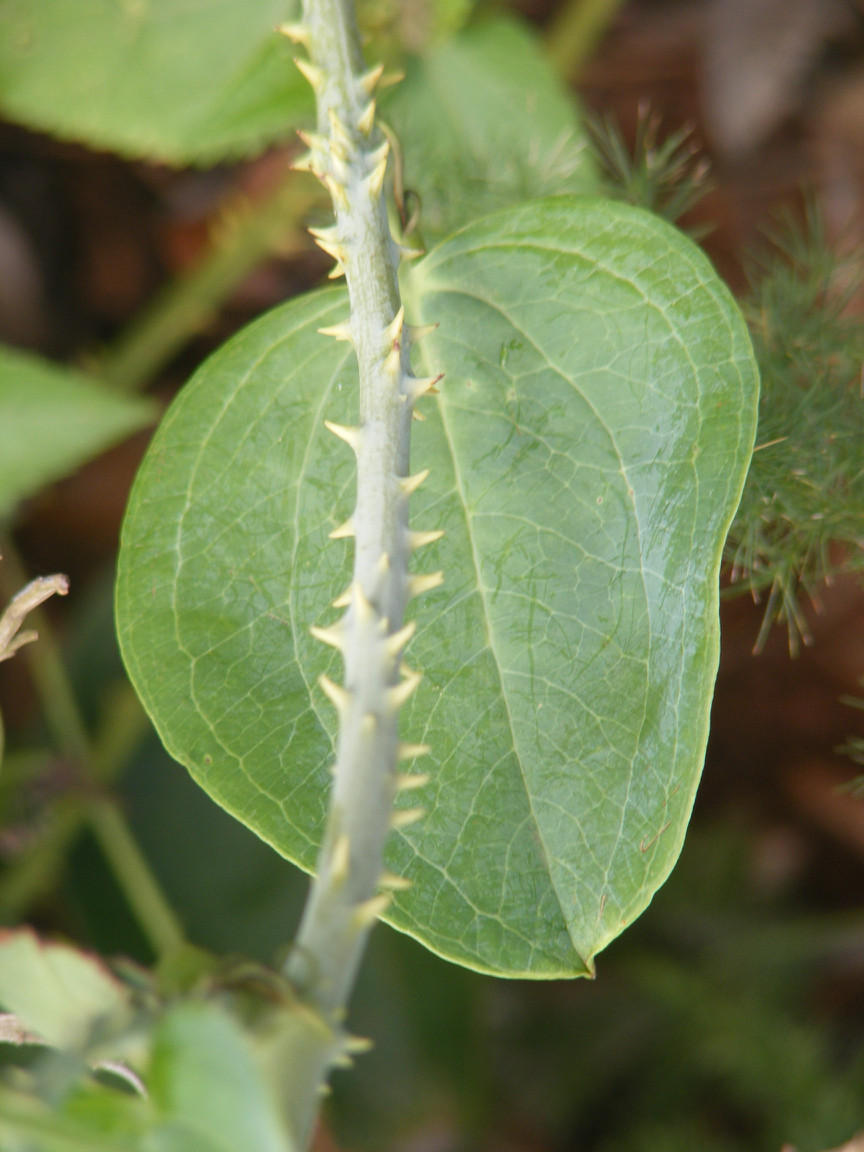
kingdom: Plantae
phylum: Tracheophyta
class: Liliopsida
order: Liliales
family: Smilacaceae
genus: Smilax
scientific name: Smilax anceps
